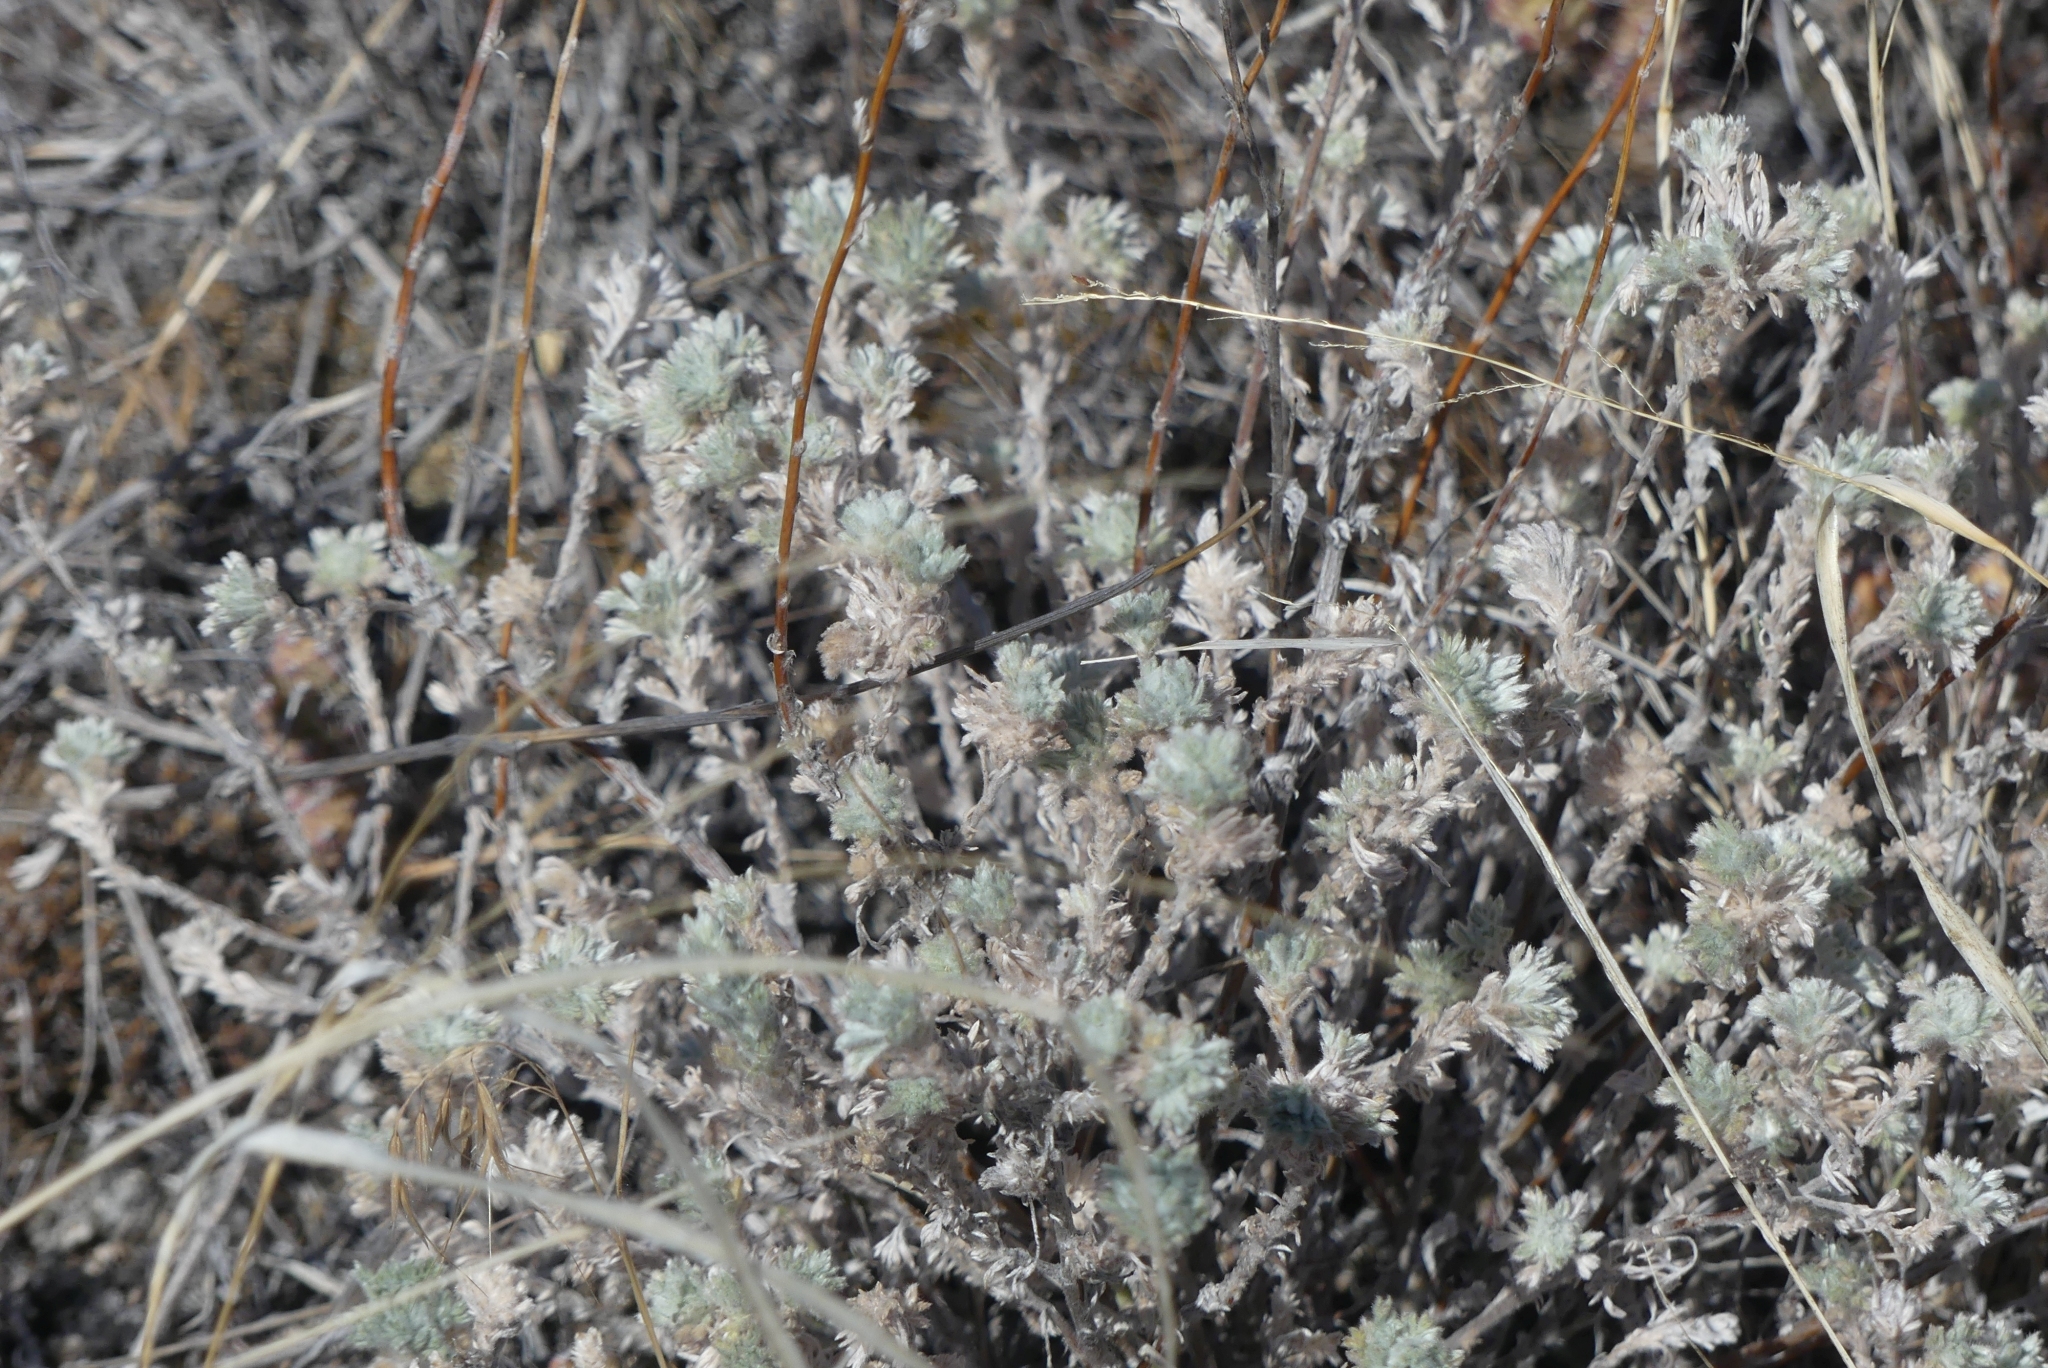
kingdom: Plantae
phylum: Tracheophyta
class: Magnoliopsida
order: Asterales
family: Asteraceae
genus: Artemisia
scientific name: Artemisia frigida
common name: Prairie sagewort
